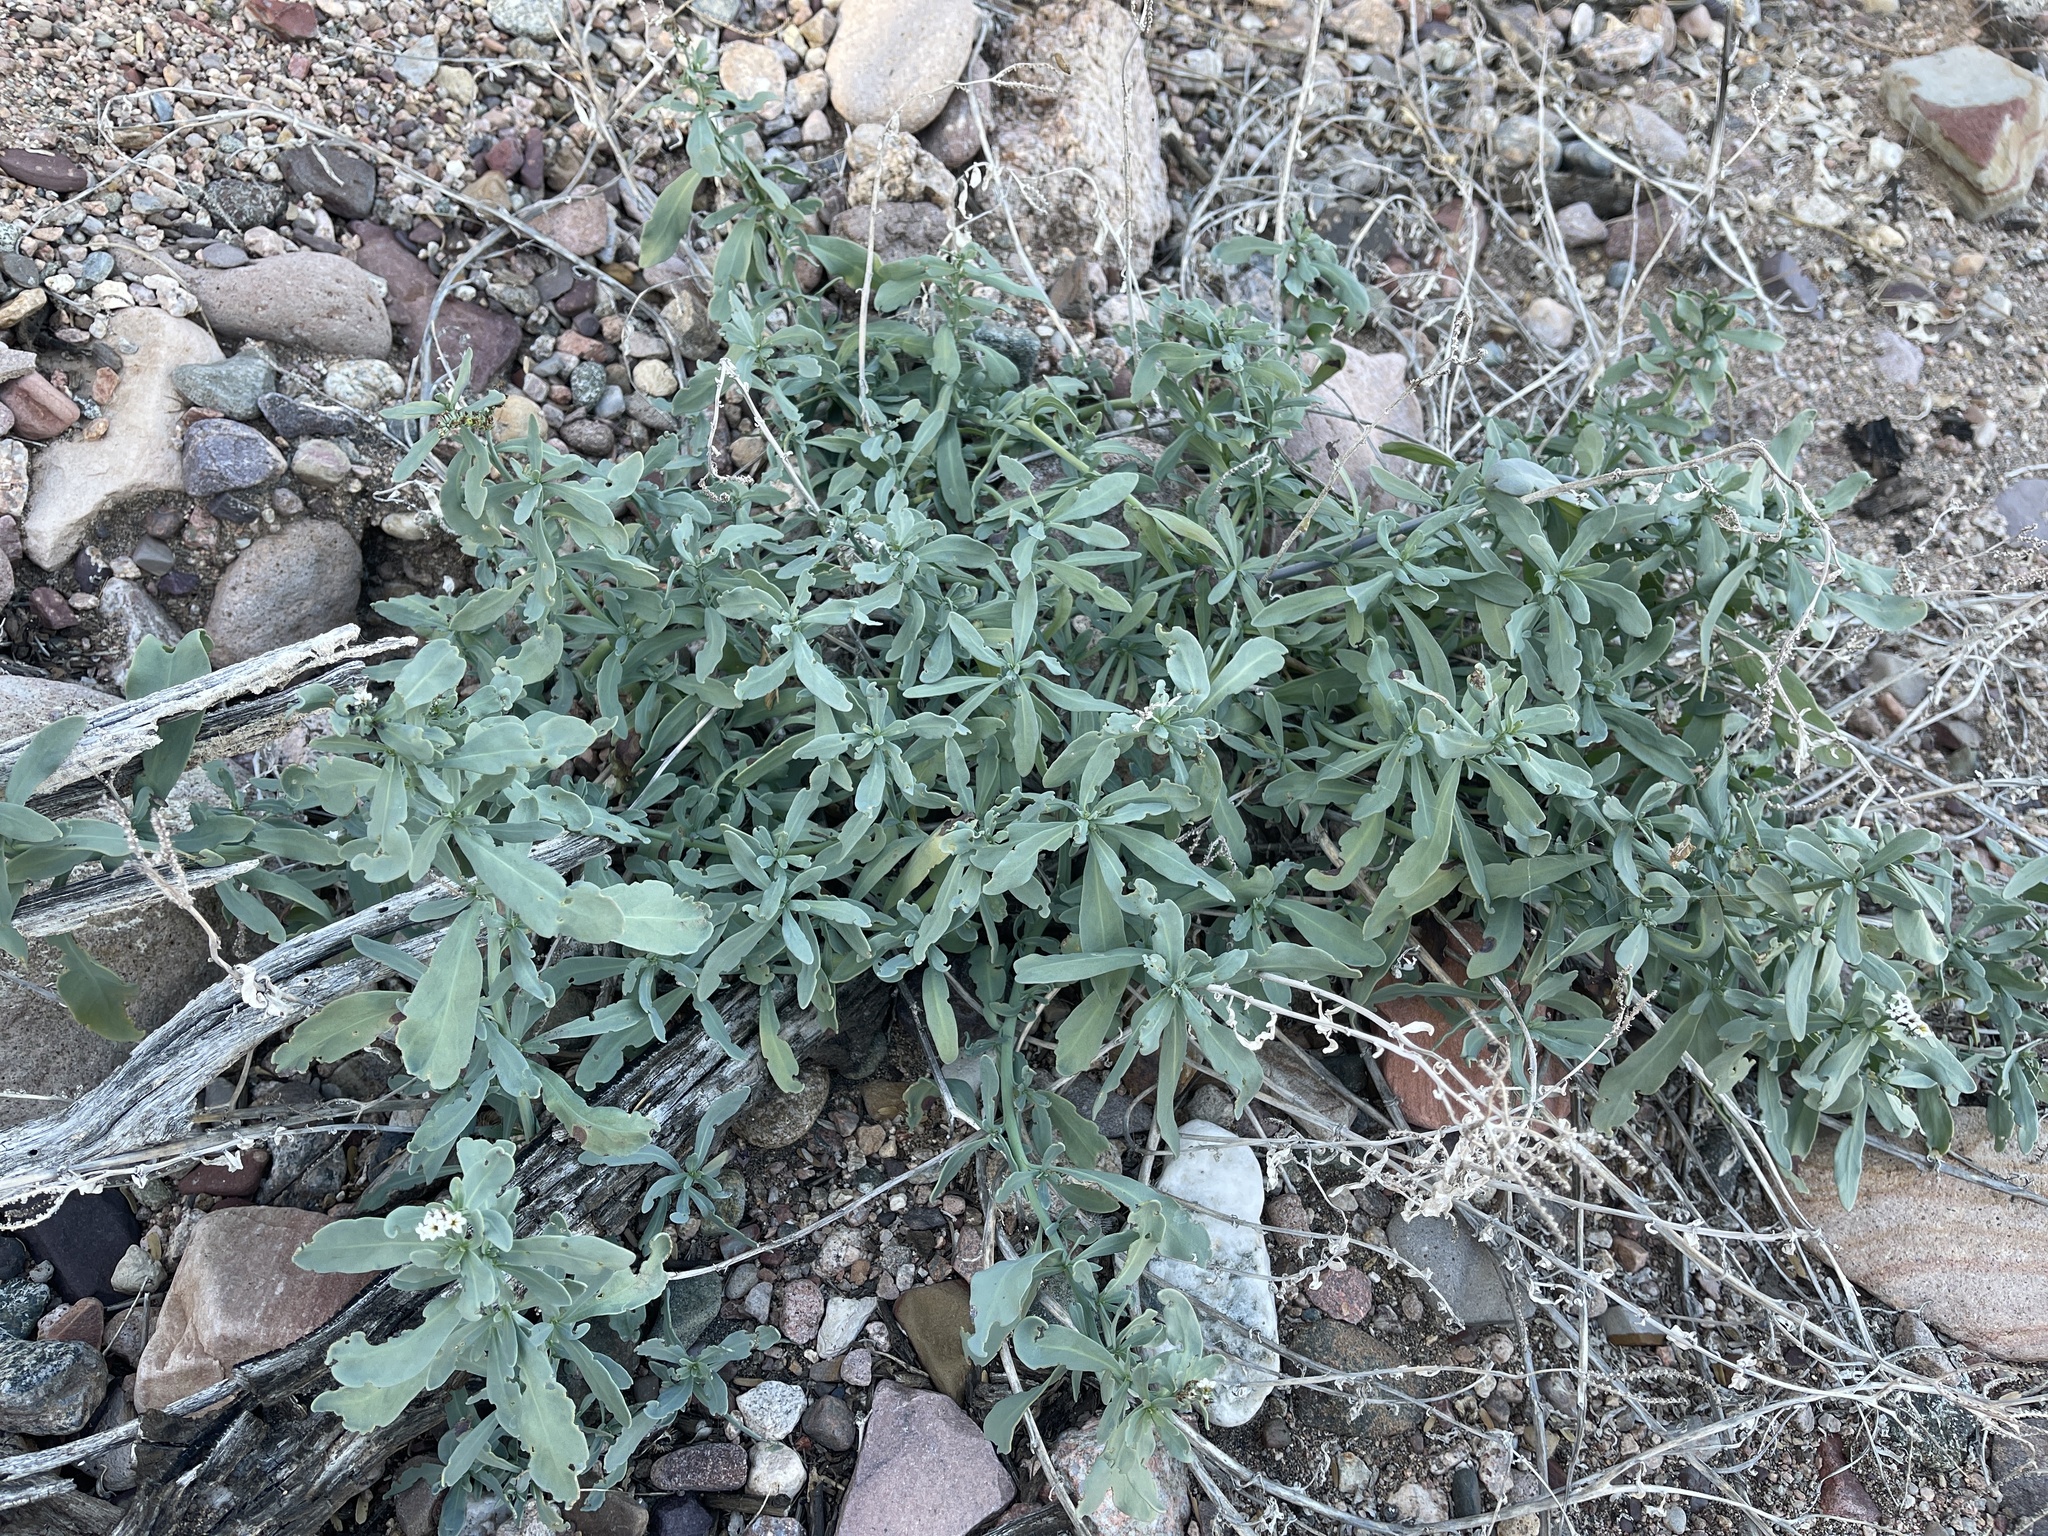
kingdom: Plantae
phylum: Tracheophyta
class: Magnoliopsida
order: Boraginales
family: Heliotropiaceae
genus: Heliotropium
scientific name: Heliotropium curassavicum
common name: Seaside heliotrope
